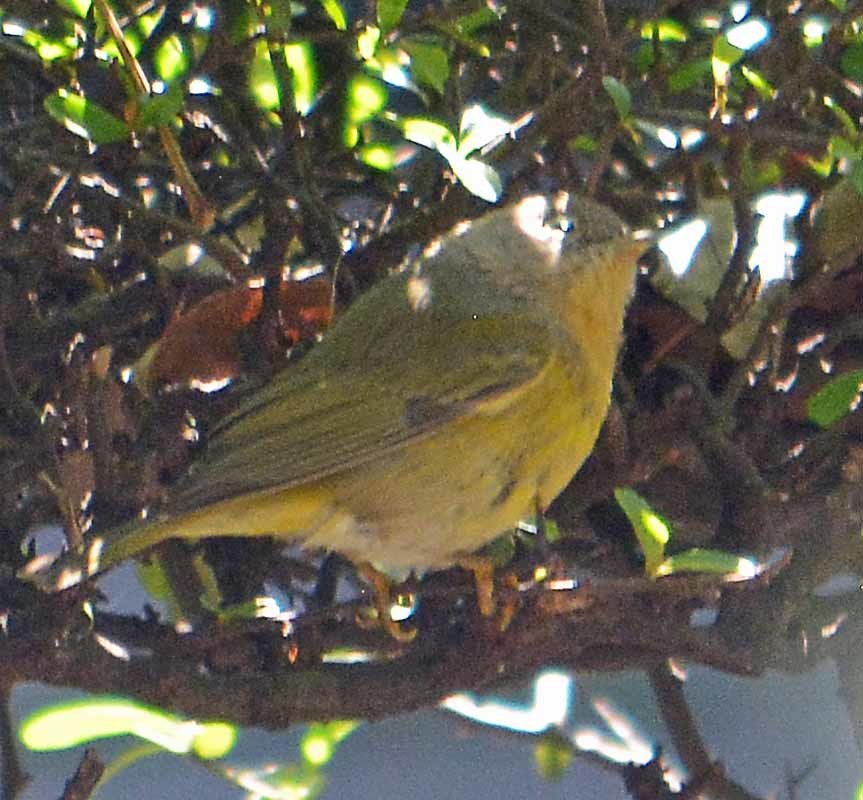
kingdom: Animalia
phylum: Chordata
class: Aves
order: Passeriformes
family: Parulidae
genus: Leiothlypis
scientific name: Leiothlypis ruficapilla
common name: Nashville warbler
